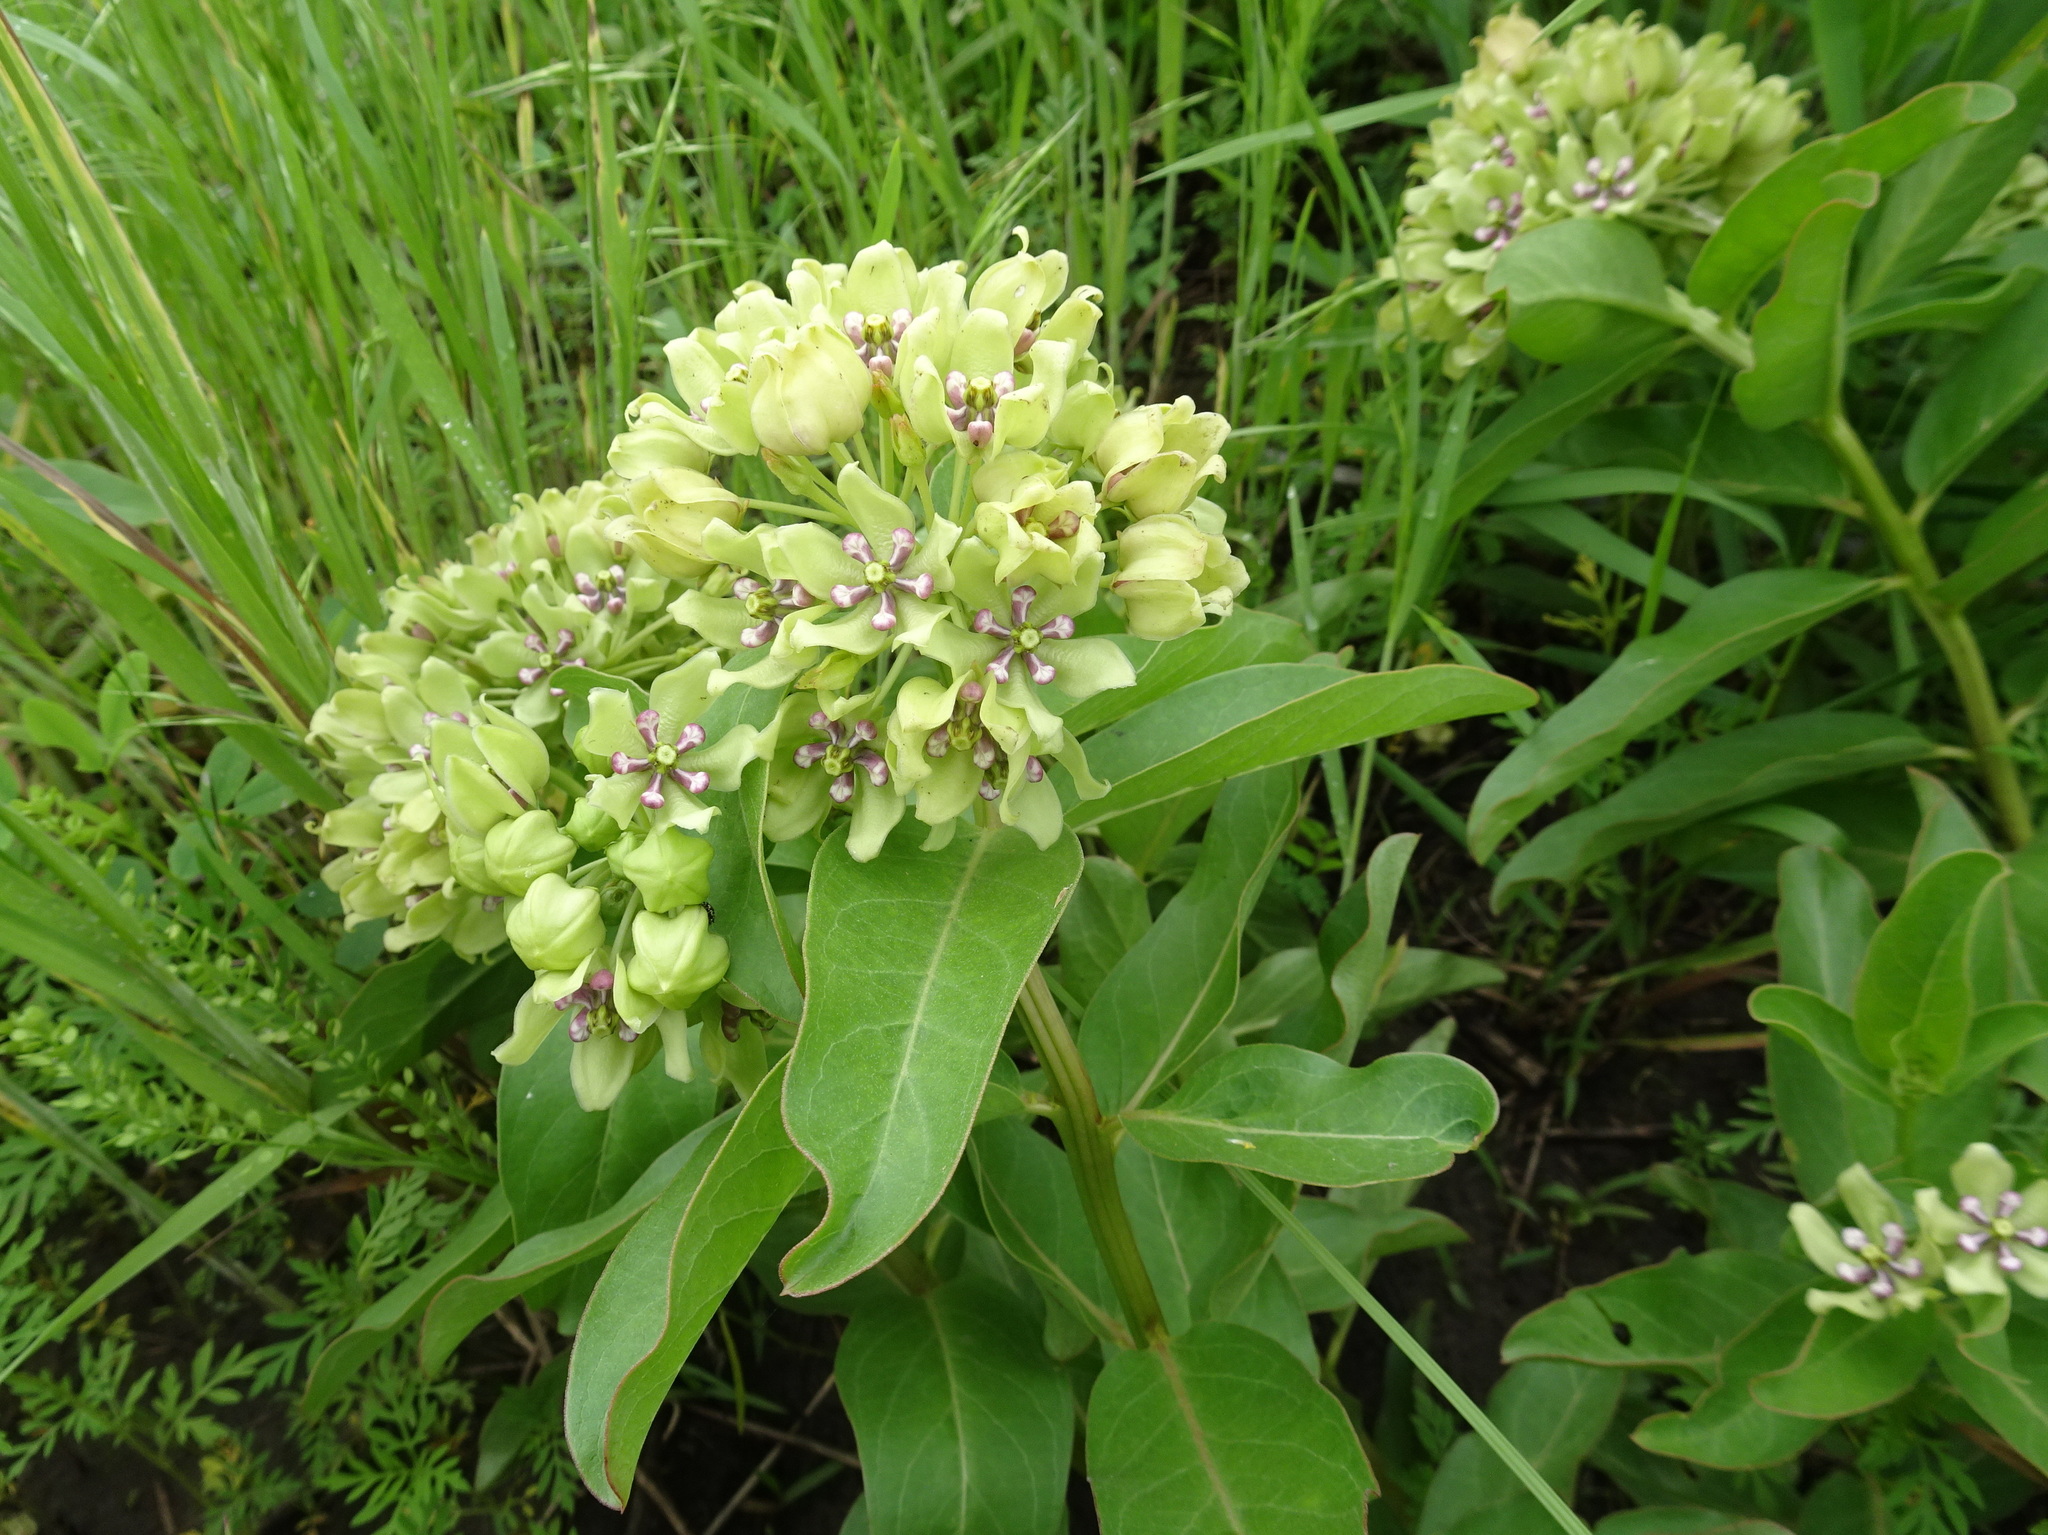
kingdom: Plantae
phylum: Tracheophyta
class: Magnoliopsida
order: Gentianales
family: Apocynaceae
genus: Asclepias
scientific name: Asclepias viridis
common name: Antelope-horns
